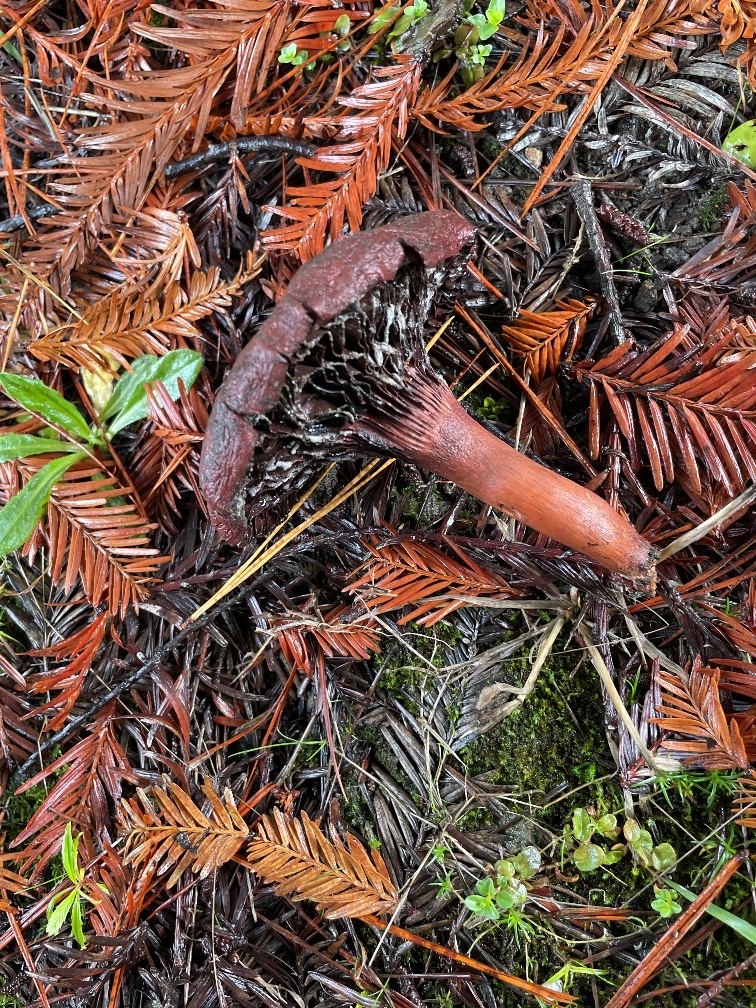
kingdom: Fungi
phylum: Basidiomycota
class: Agaricomycetes
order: Boletales
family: Gomphidiaceae
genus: Chroogomphus
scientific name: Chroogomphus vinicolor
